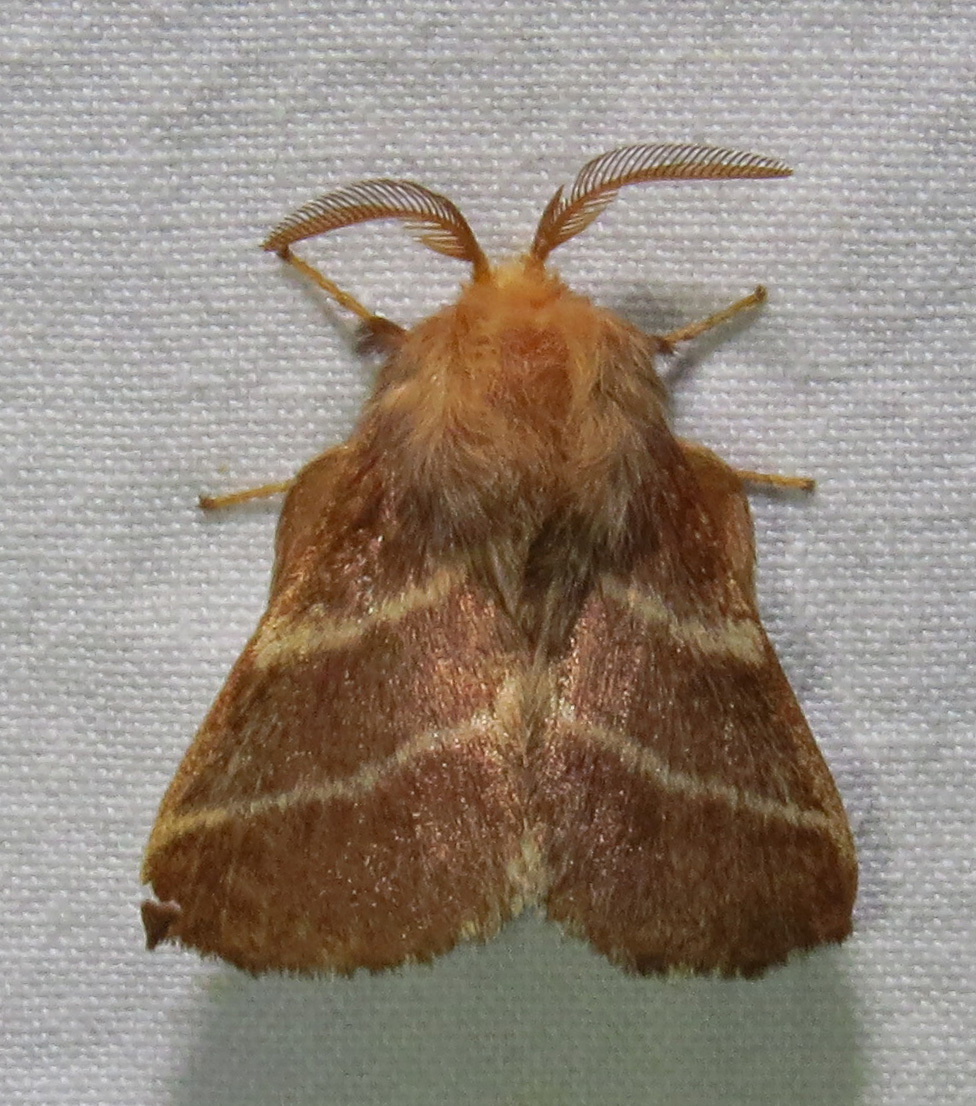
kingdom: Animalia
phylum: Arthropoda
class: Insecta
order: Lepidoptera
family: Lasiocampidae
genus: Malacosoma
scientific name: Malacosoma americana
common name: Eastern tent caterpillar moth
